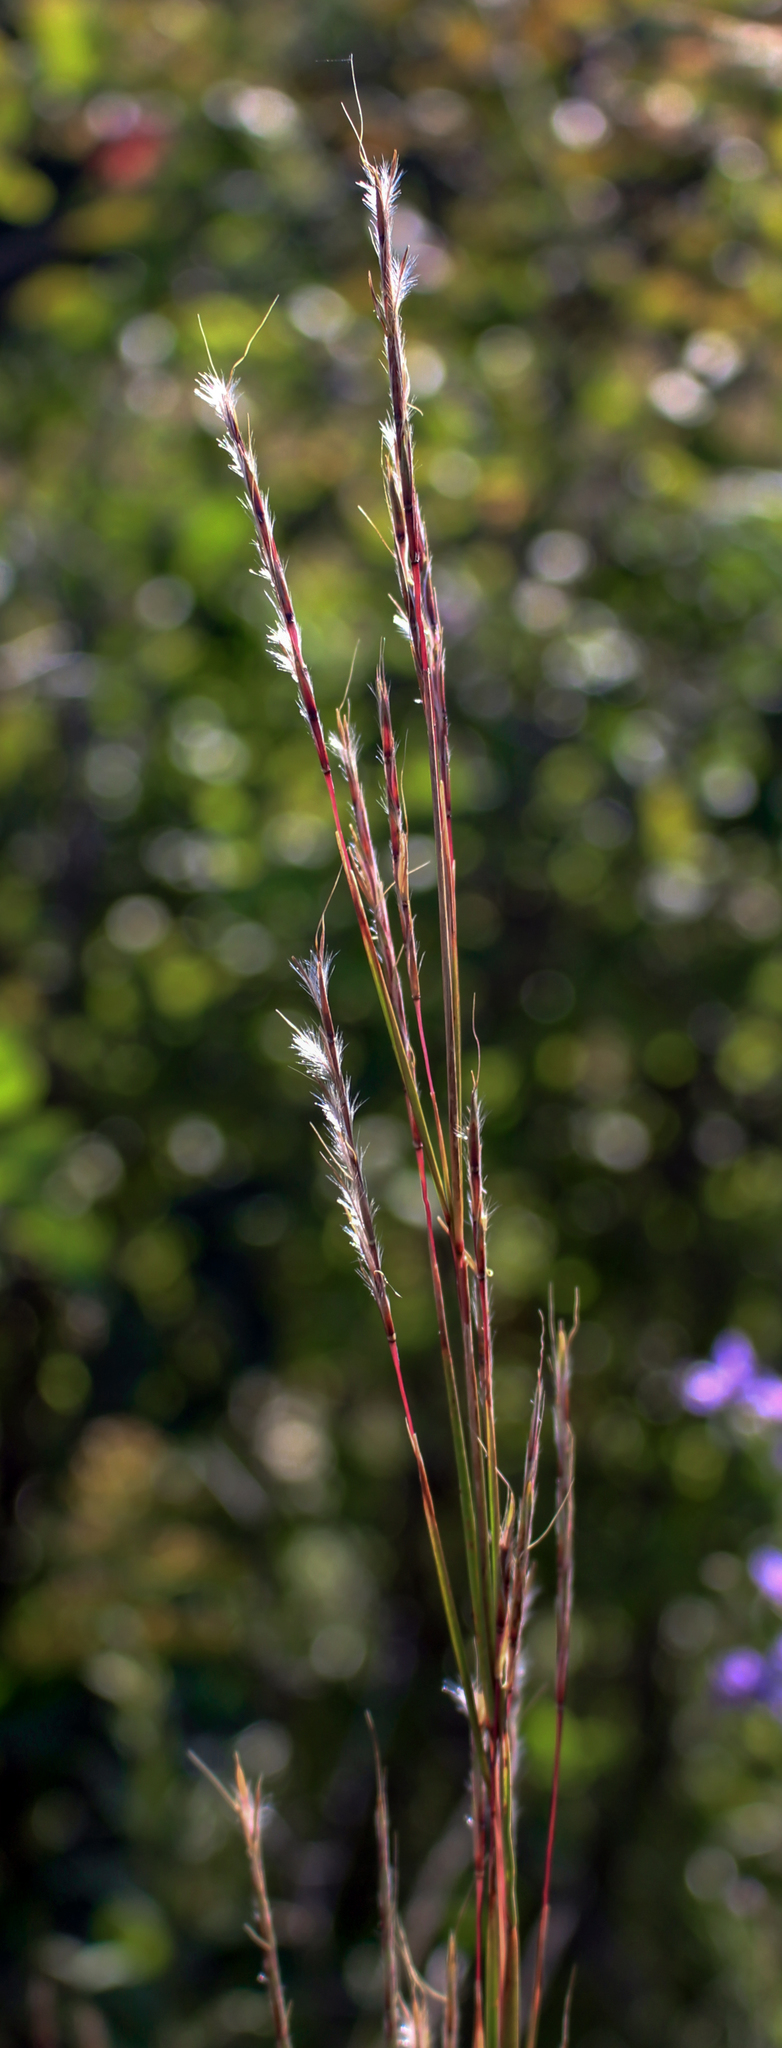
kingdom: Plantae
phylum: Tracheophyta
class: Liliopsida
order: Poales
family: Poaceae
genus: Schizachyrium
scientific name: Schizachyrium scoparium
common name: Little bluestem
